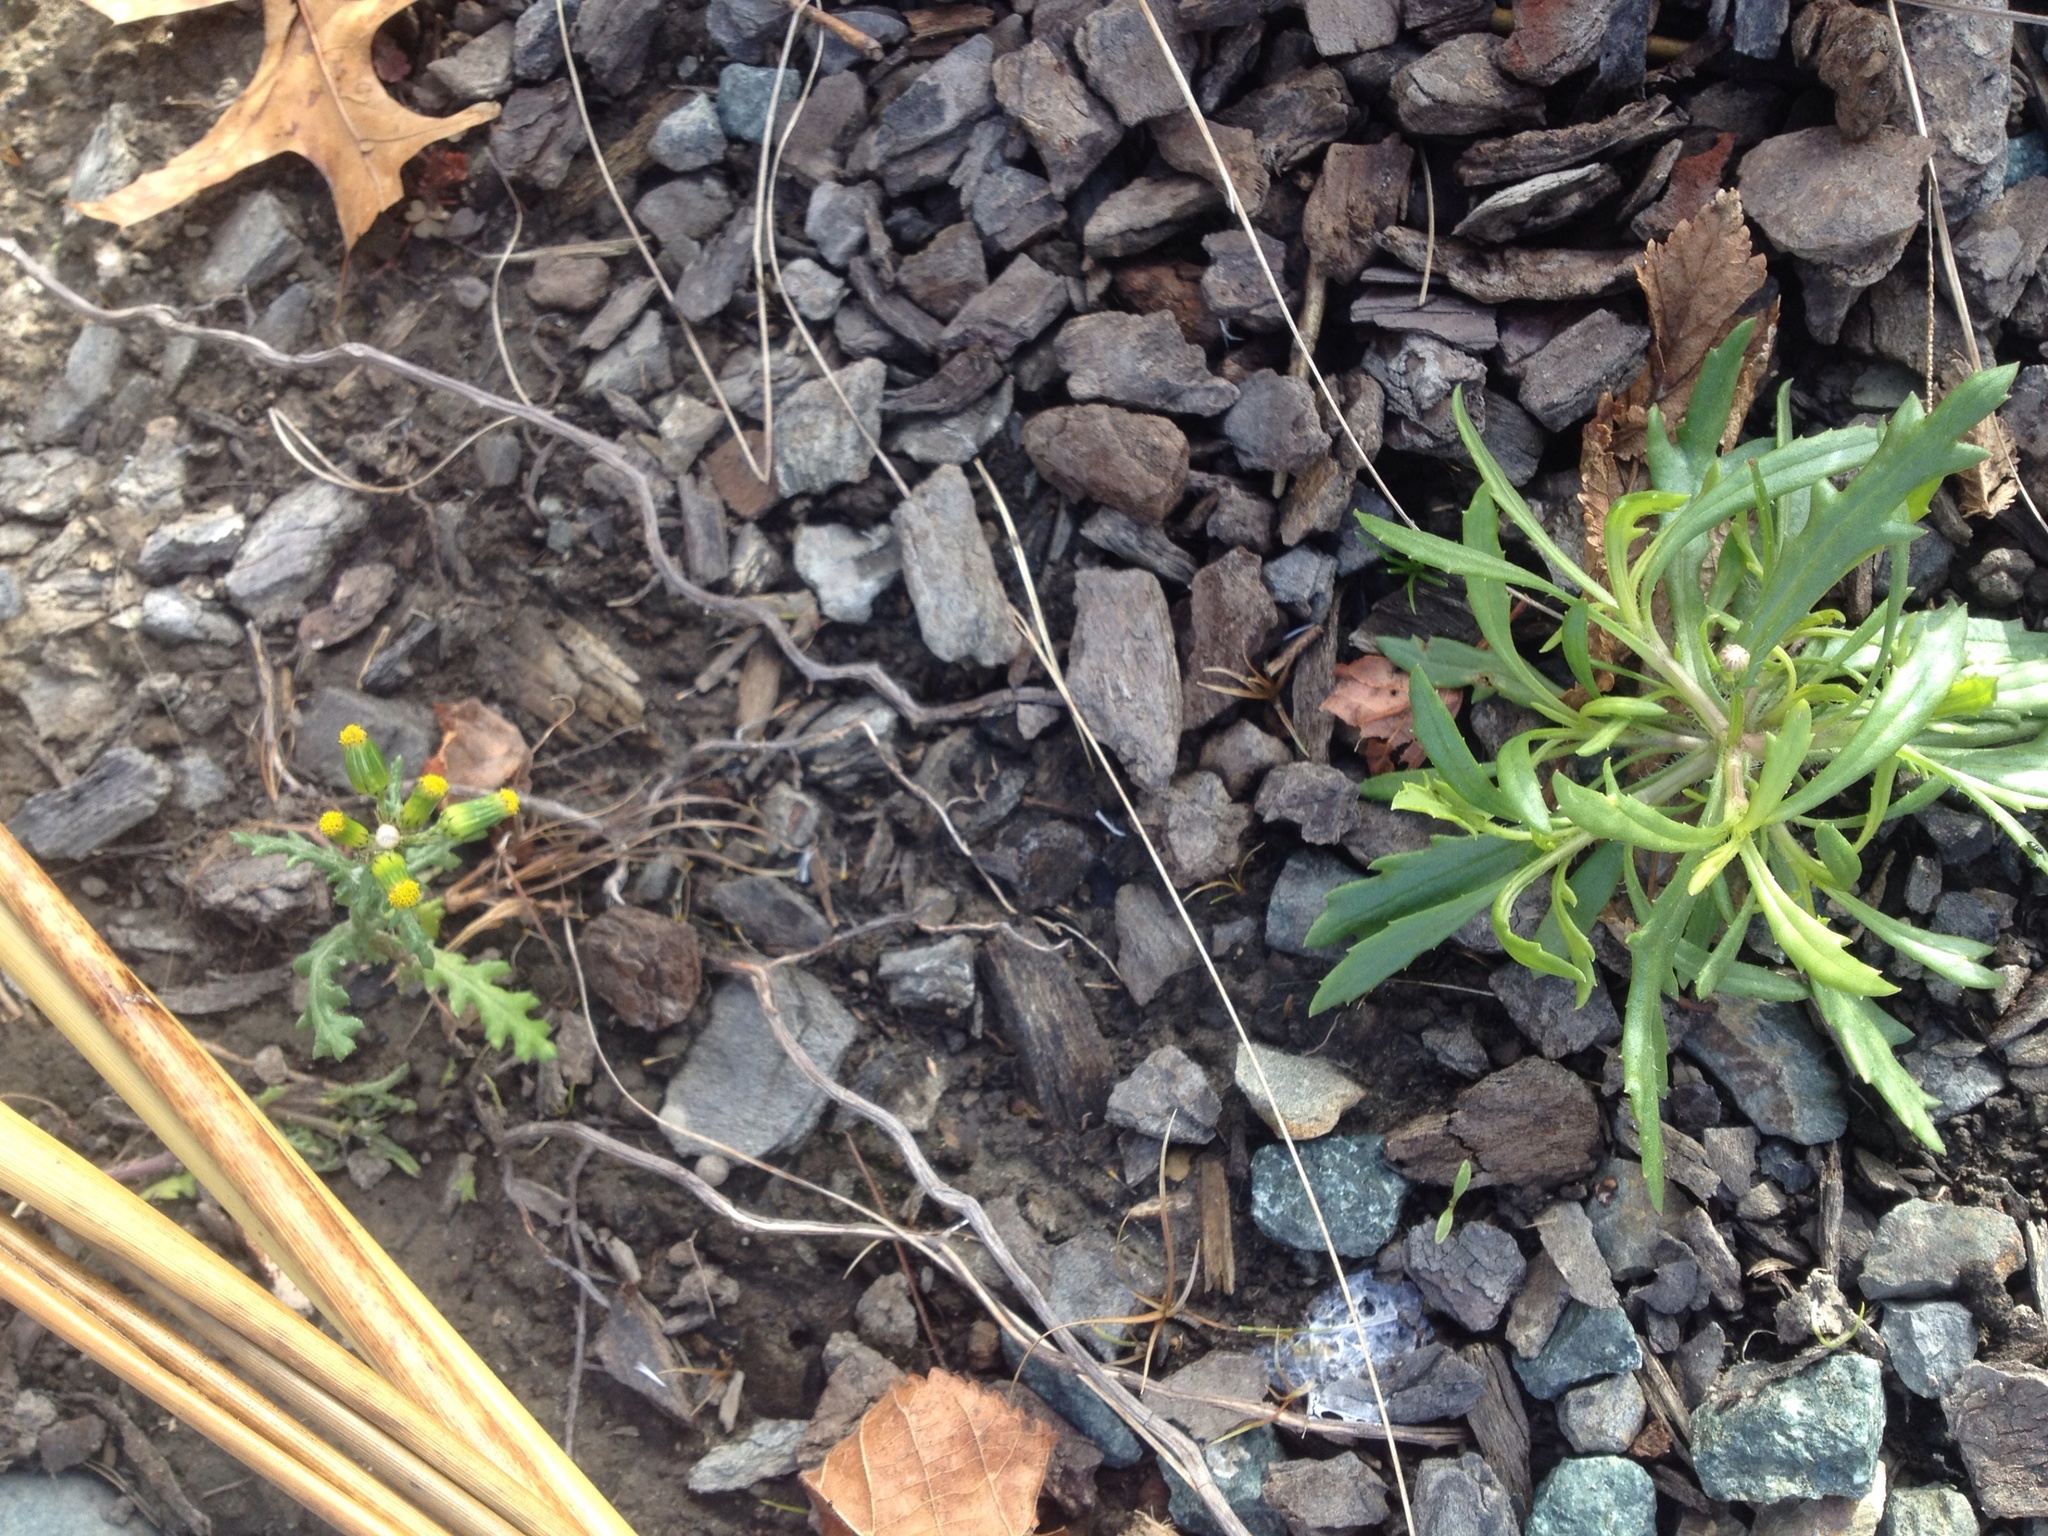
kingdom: Plantae
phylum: Tracheophyta
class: Magnoliopsida
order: Asterales
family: Asteraceae
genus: Senecio
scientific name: Senecio vulgaris
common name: Old-man-in-the-spring
